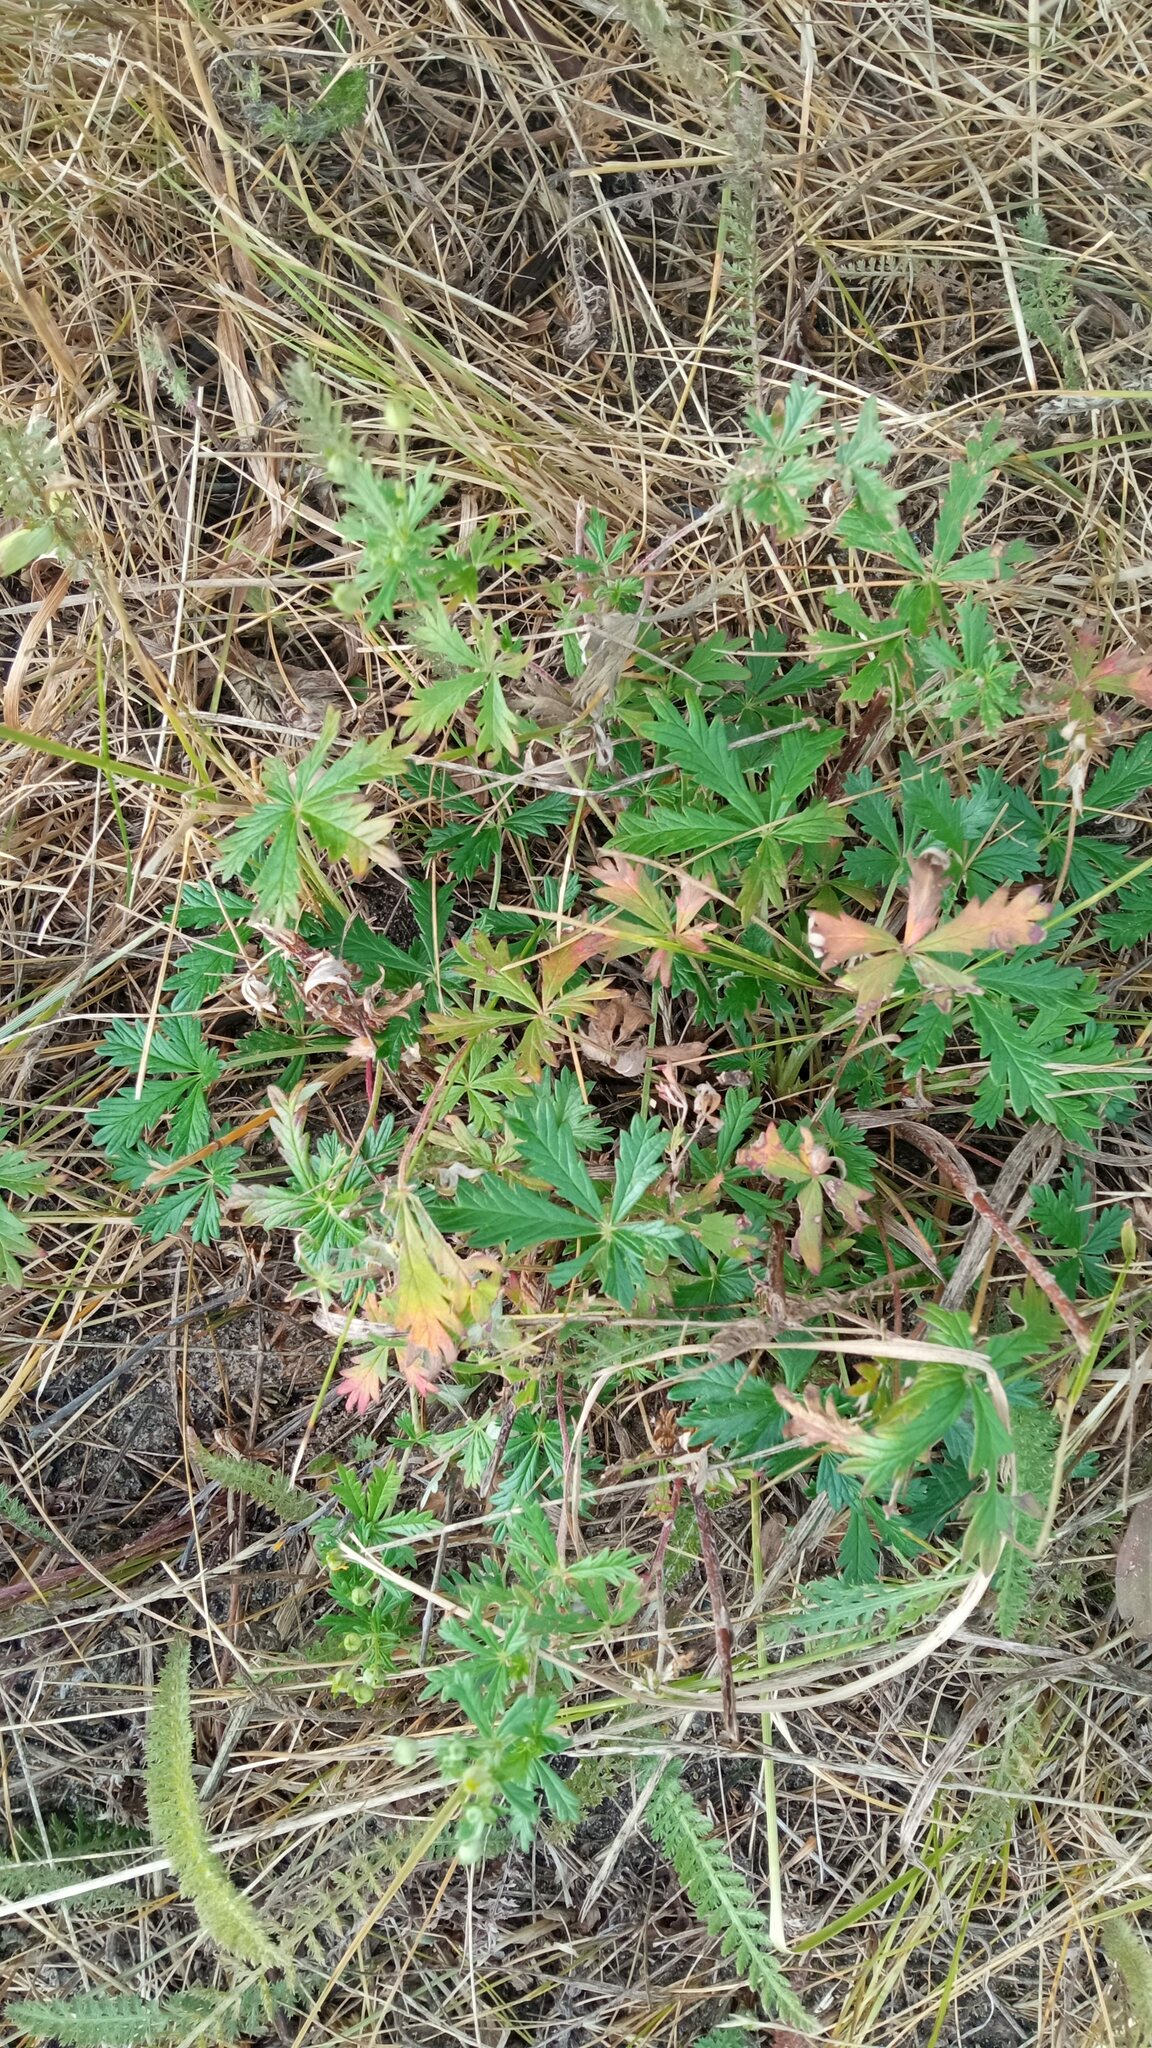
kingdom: Plantae
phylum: Tracheophyta
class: Magnoliopsida
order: Rosales
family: Rosaceae
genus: Potentilla
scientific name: Potentilla argentea
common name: Hoary cinquefoil
